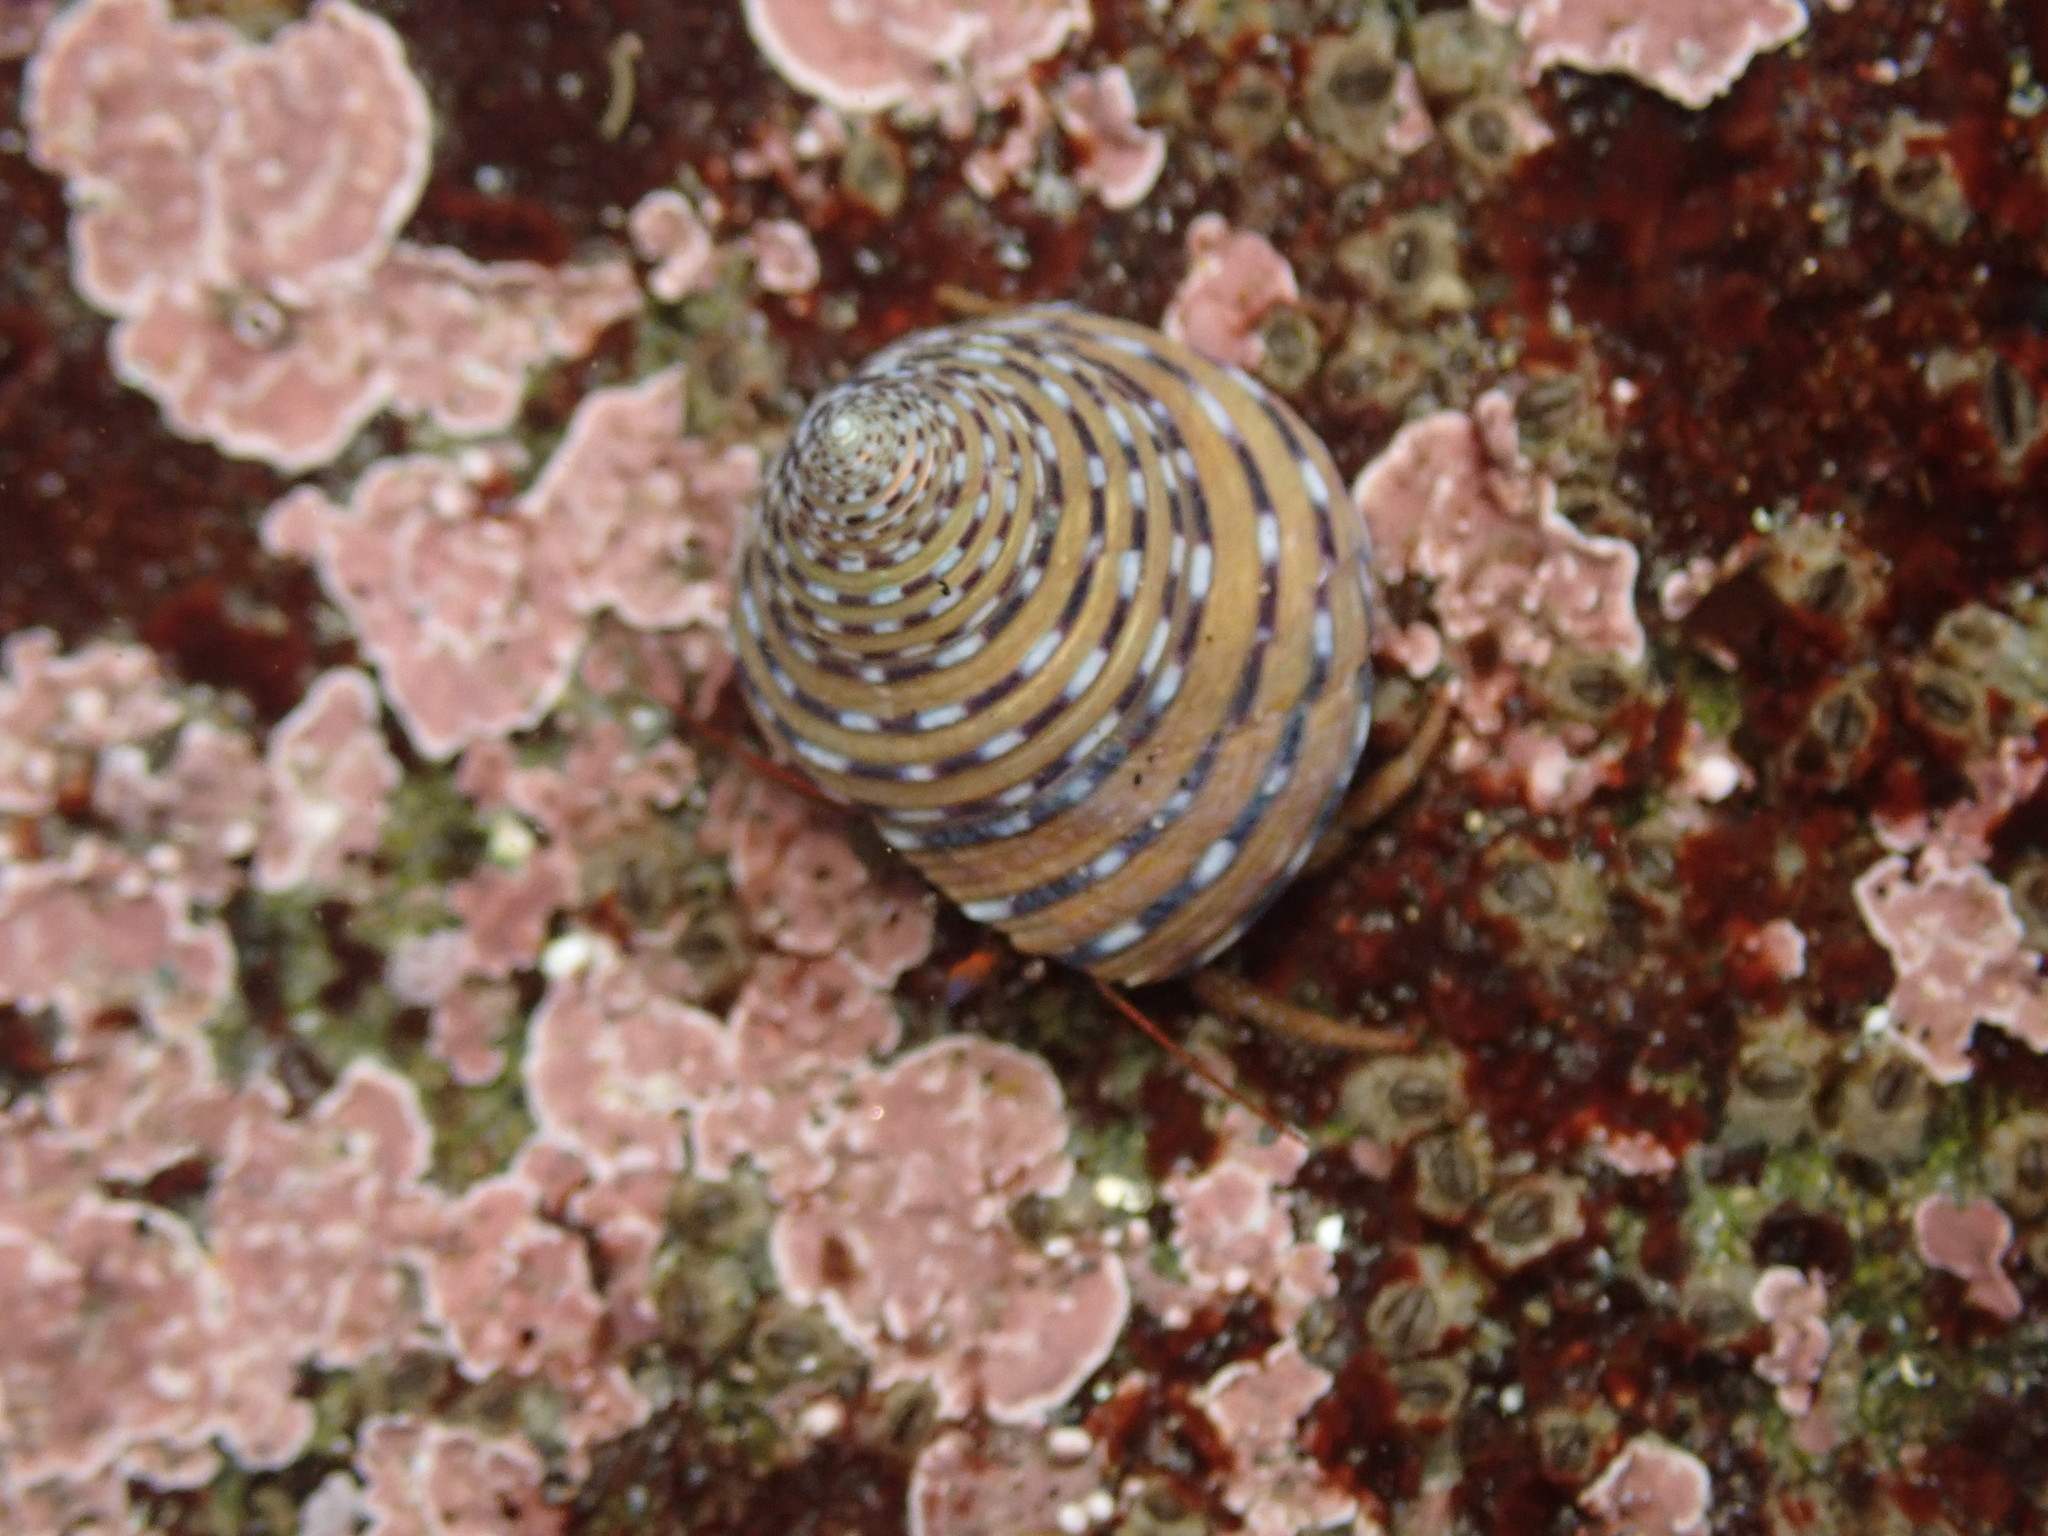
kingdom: Animalia
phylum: Arthropoda
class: Malacostraca
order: Decapoda
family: Paguridae
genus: Pagurus
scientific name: Pagurus granosimanus
